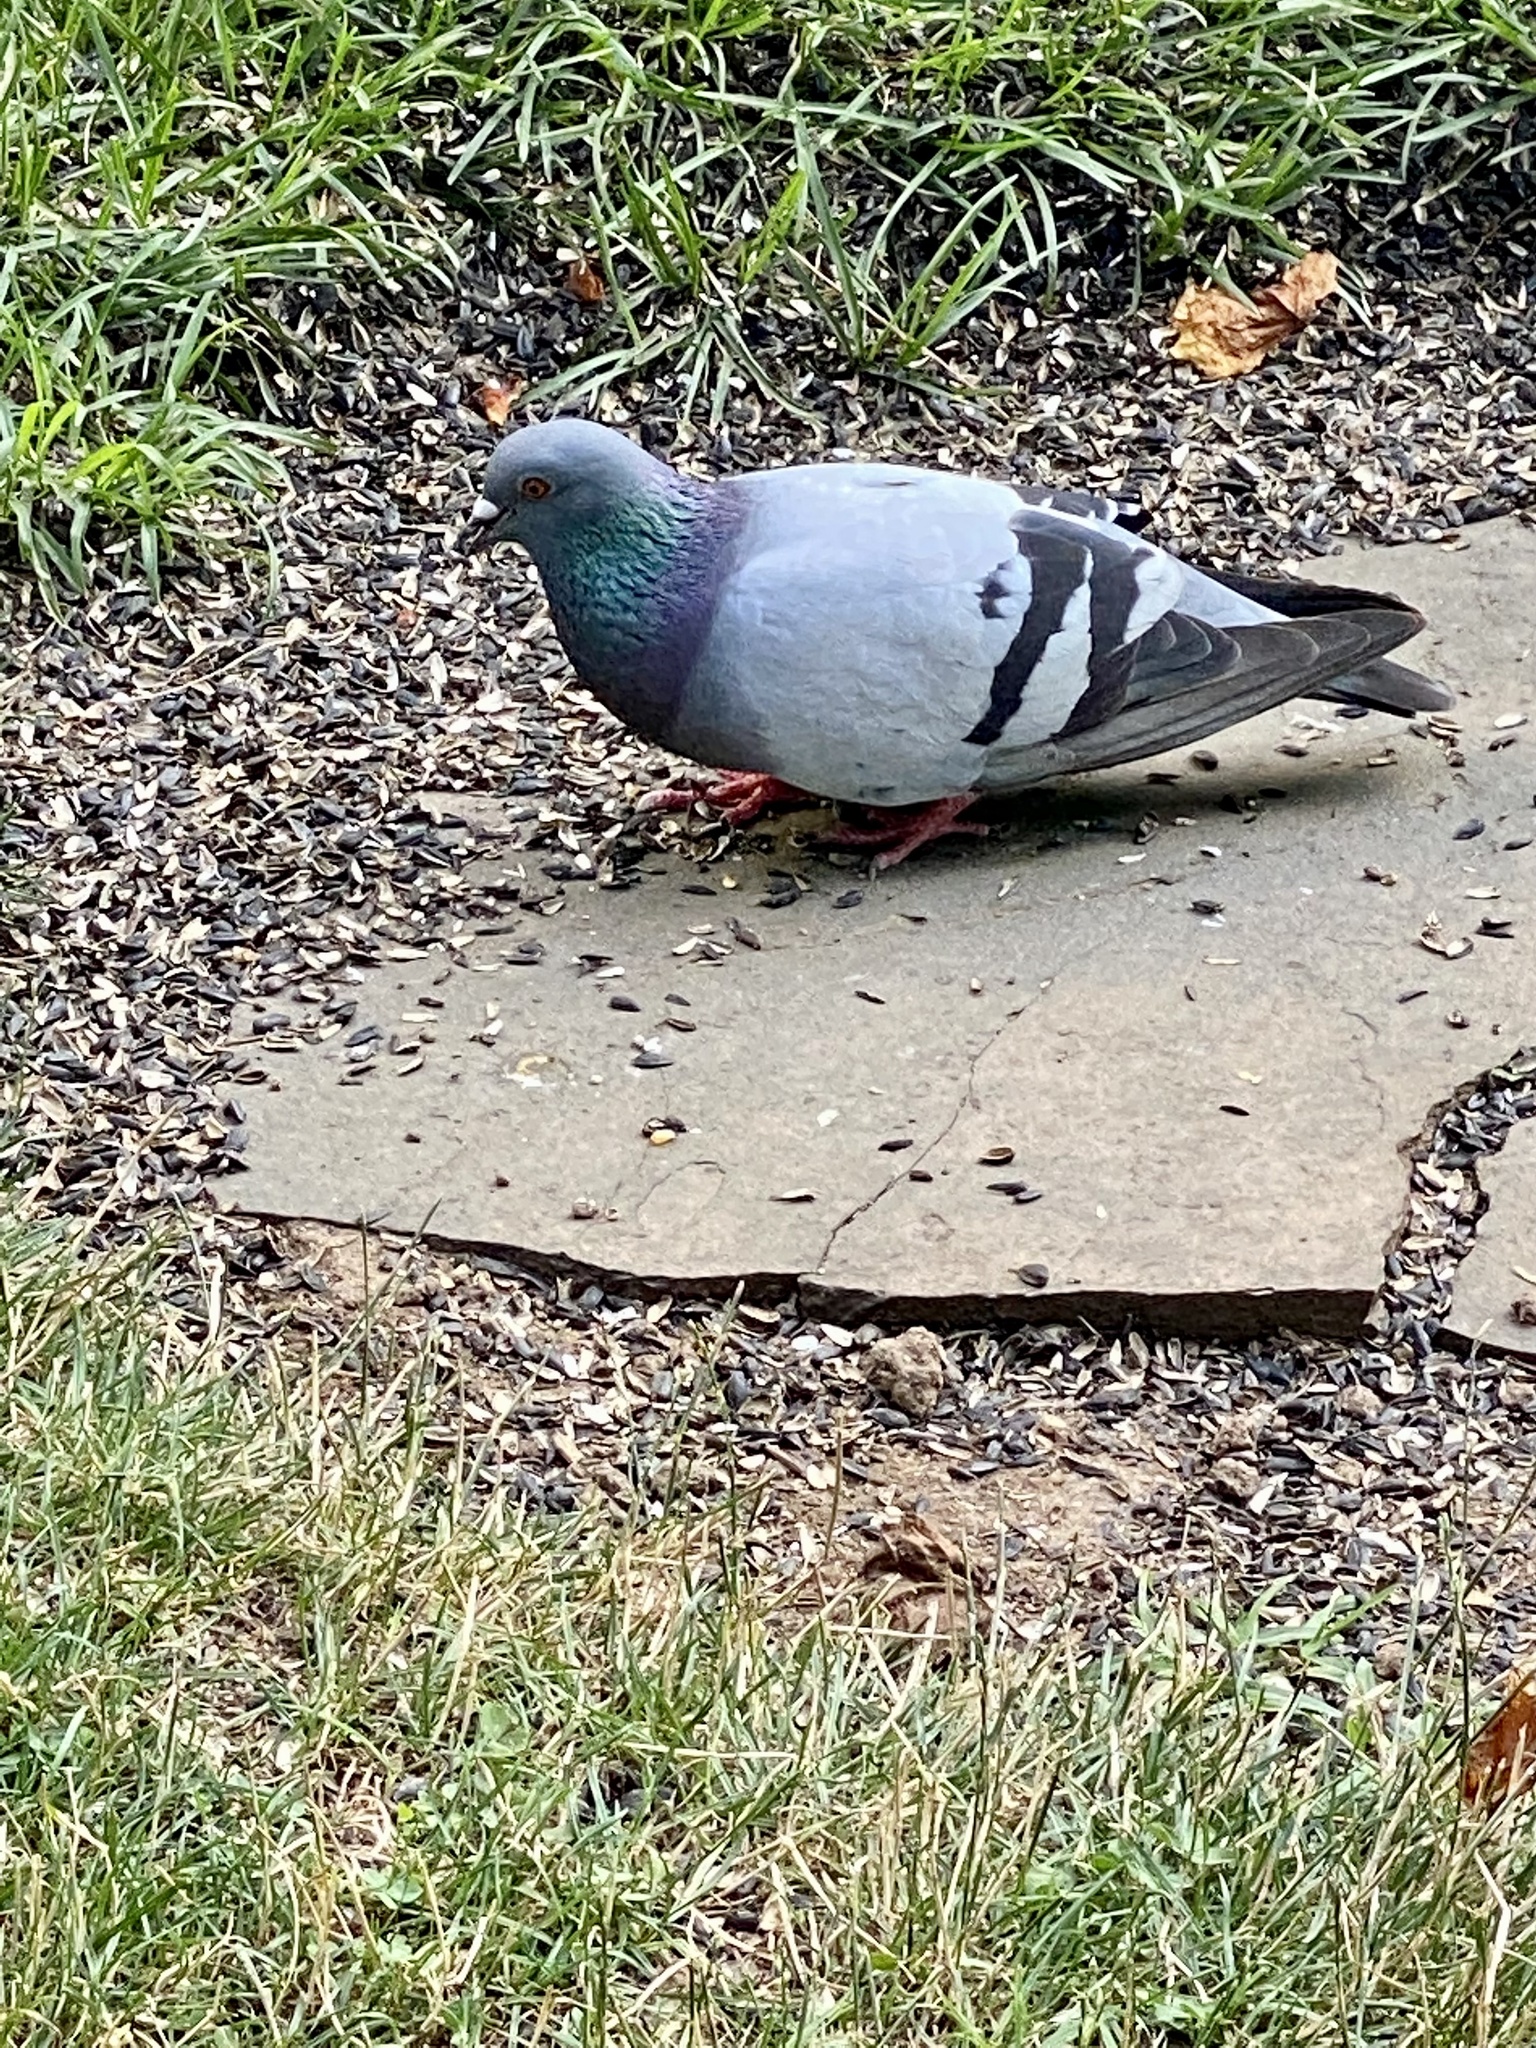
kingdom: Animalia
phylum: Chordata
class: Aves
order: Columbiformes
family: Columbidae
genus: Columba
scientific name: Columba livia
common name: Rock pigeon
